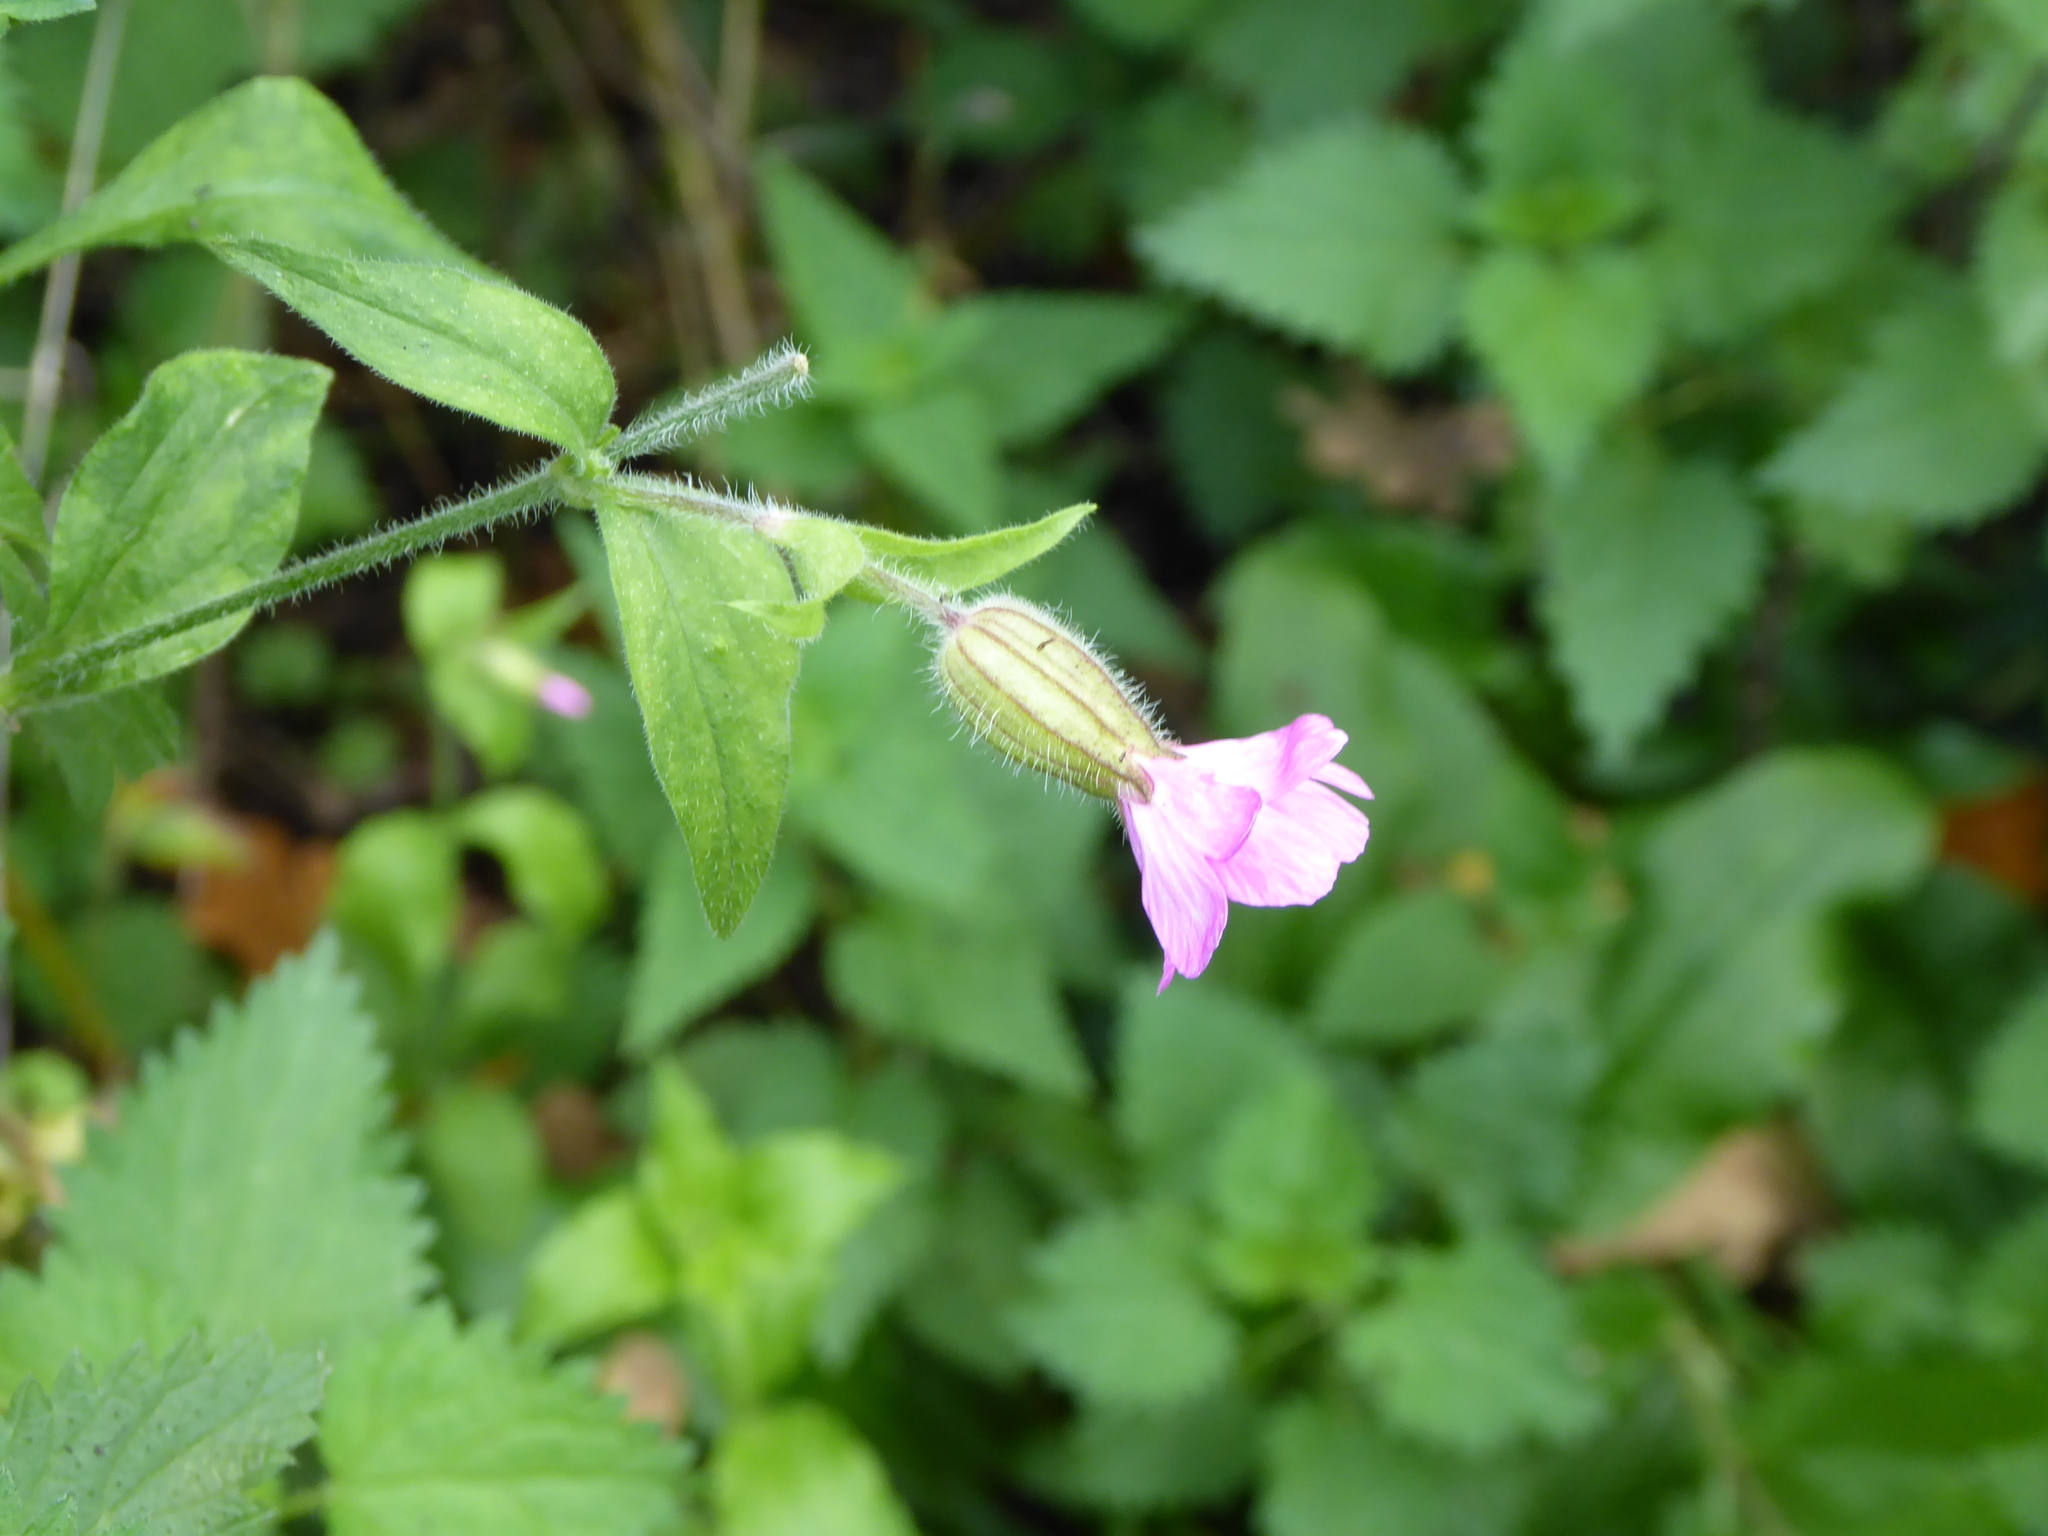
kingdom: Plantae
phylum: Tracheophyta
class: Magnoliopsida
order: Caryophyllales
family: Caryophyllaceae
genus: Silene
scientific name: Silene dioica
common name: Red campion
